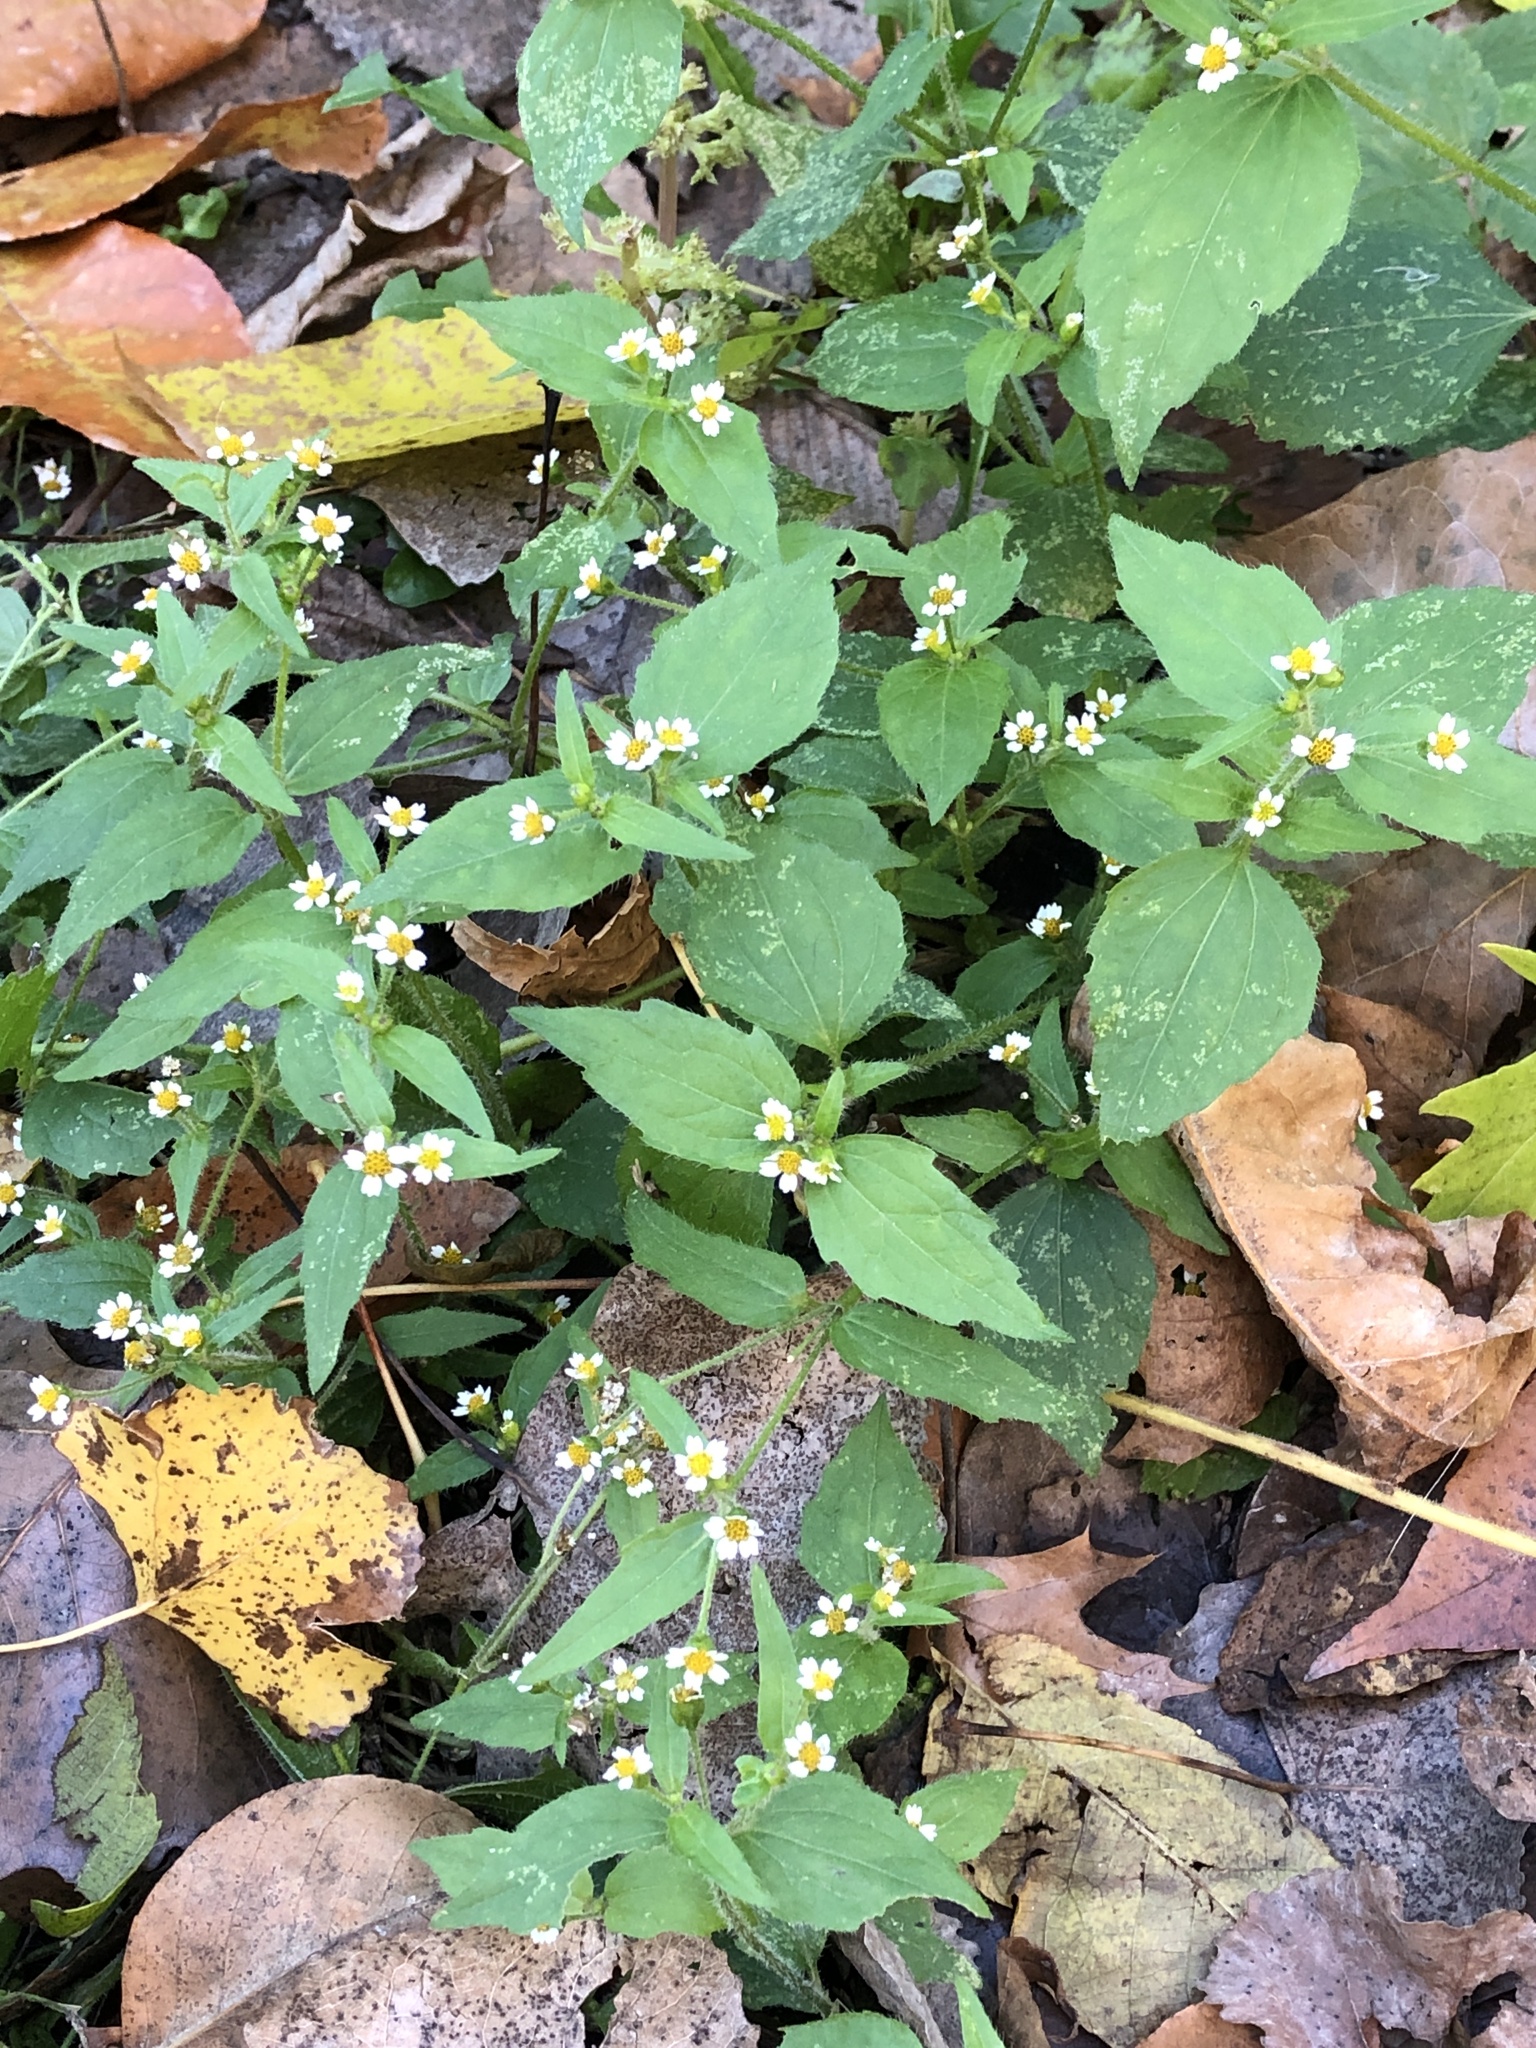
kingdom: Plantae
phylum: Tracheophyta
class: Magnoliopsida
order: Asterales
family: Asteraceae
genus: Galinsoga
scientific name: Galinsoga quadriradiata
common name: Shaggy soldier
